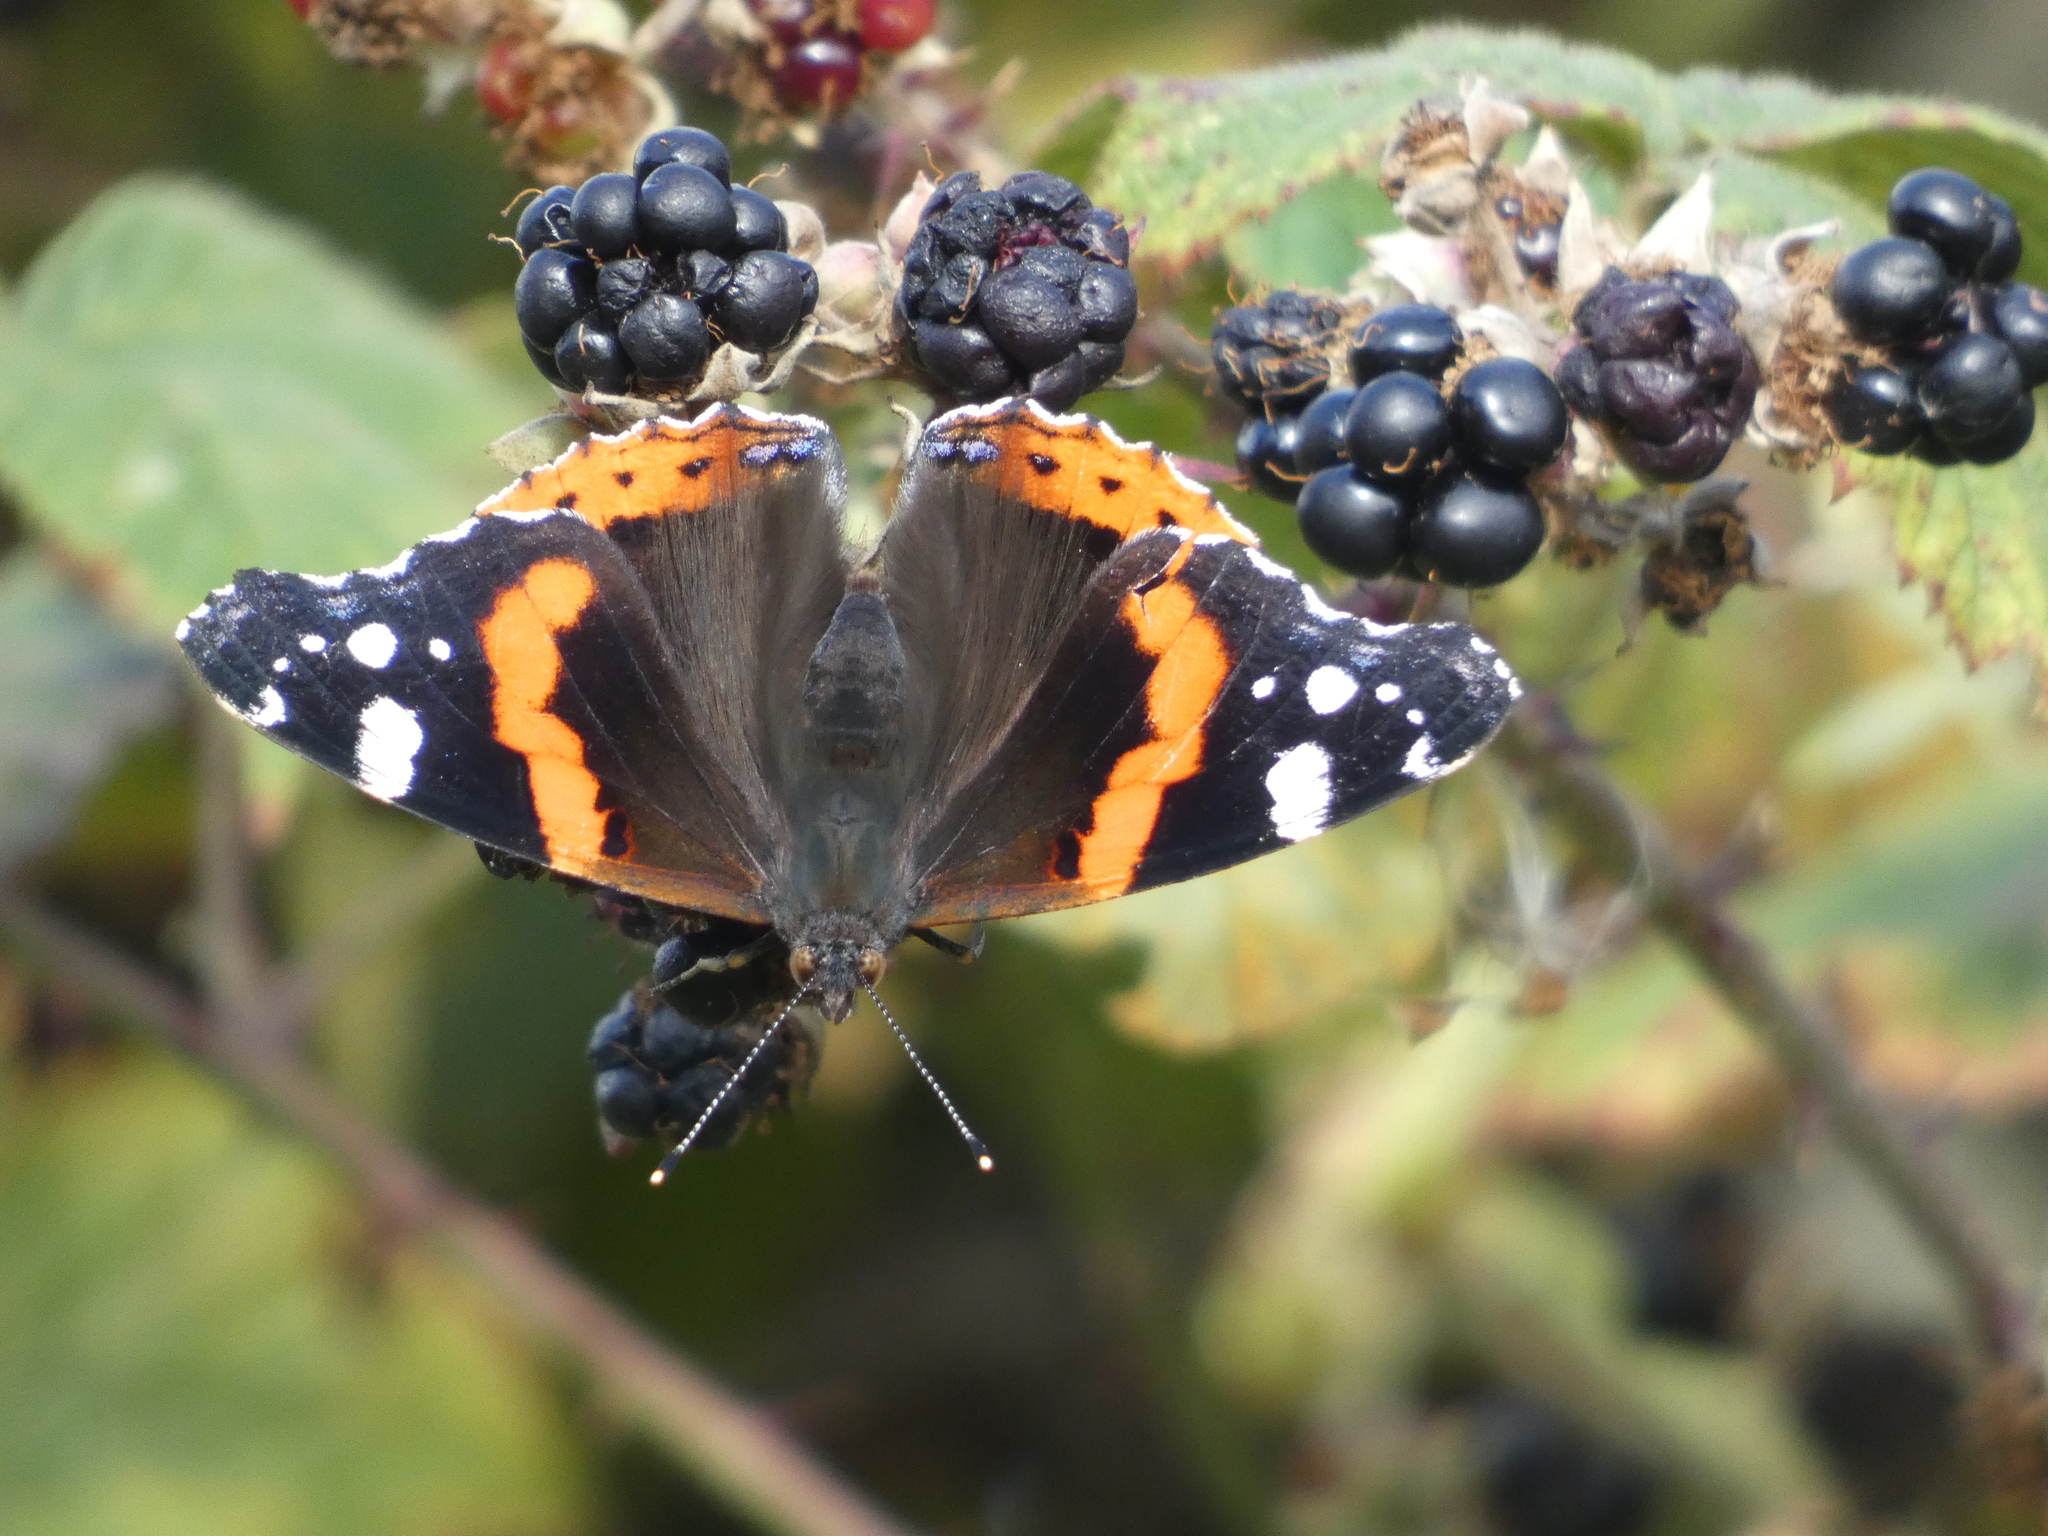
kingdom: Animalia
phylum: Arthropoda
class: Insecta
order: Lepidoptera
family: Nymphalidae
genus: Vanessa
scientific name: Vanessa atalanta
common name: Red admiral
